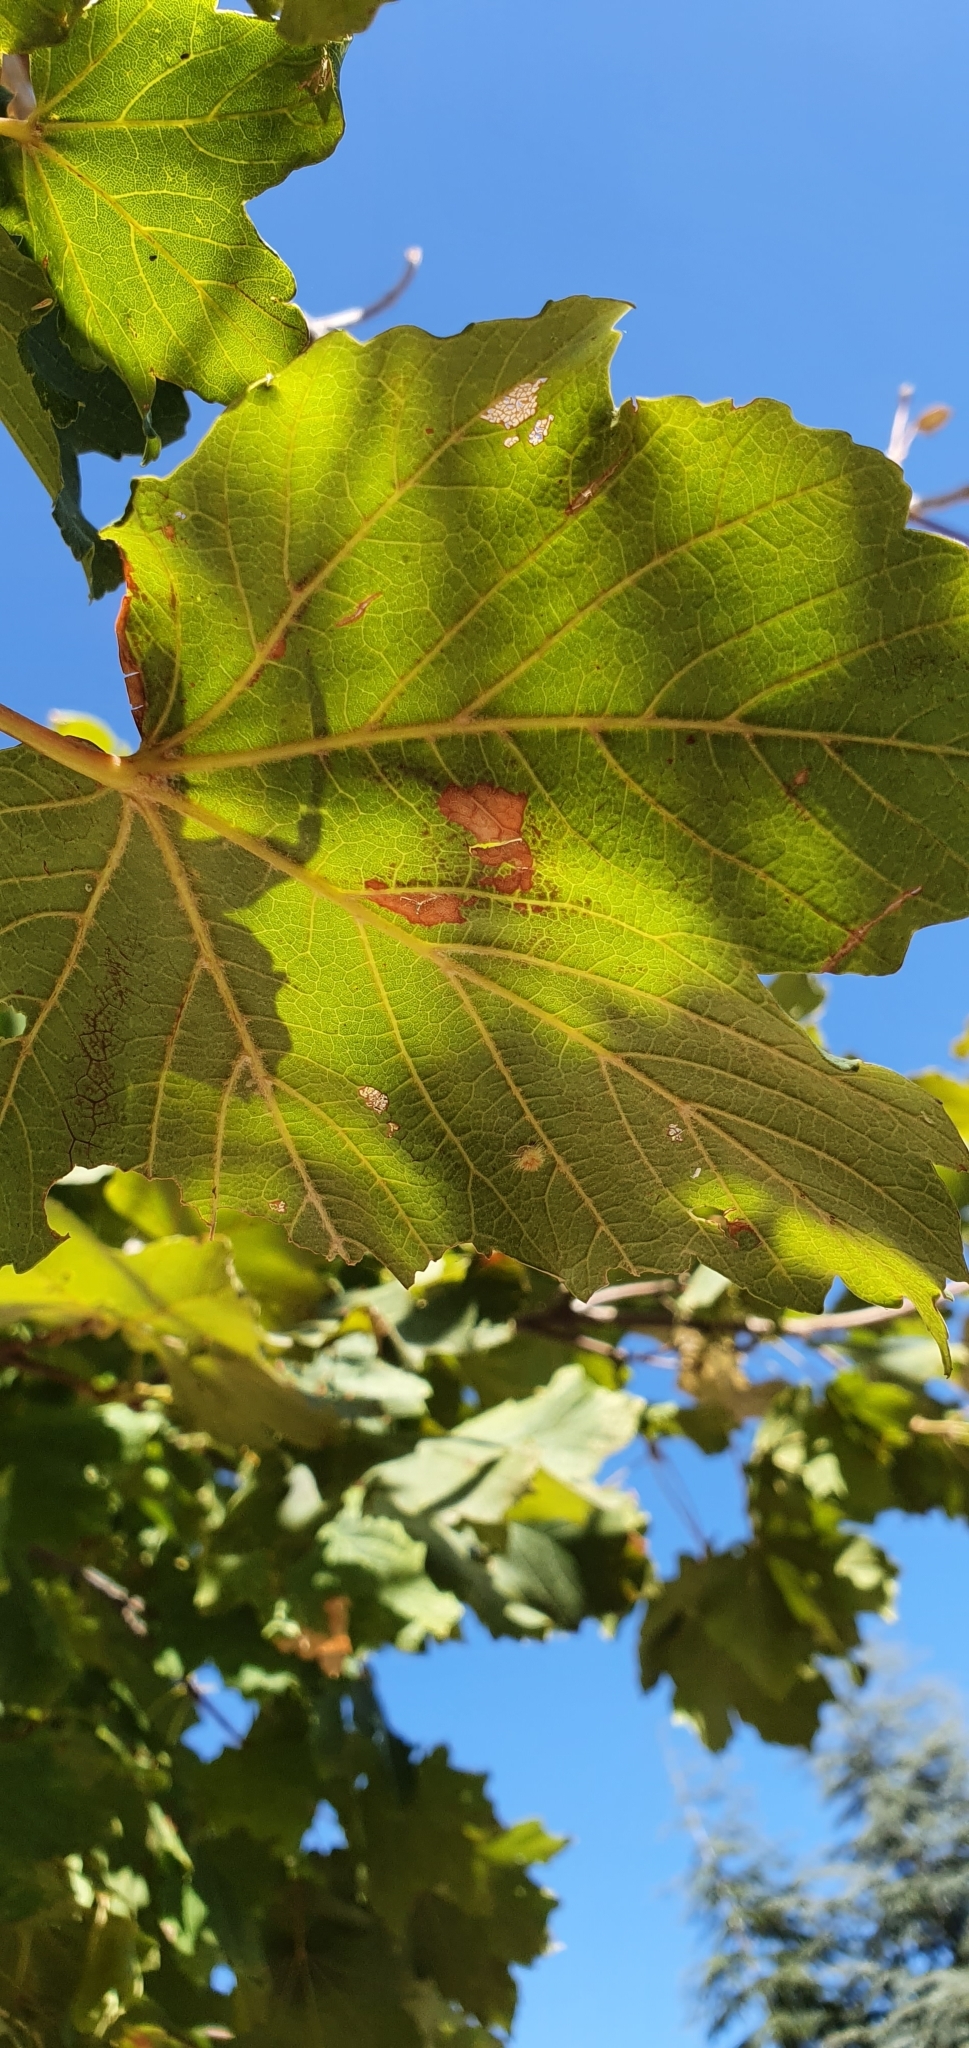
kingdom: Plantae
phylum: Tracheophyta
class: Magnoliopsida
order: Sapindales
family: Sapindaceae
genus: Acer
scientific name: Acer opalus
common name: Italian maple
